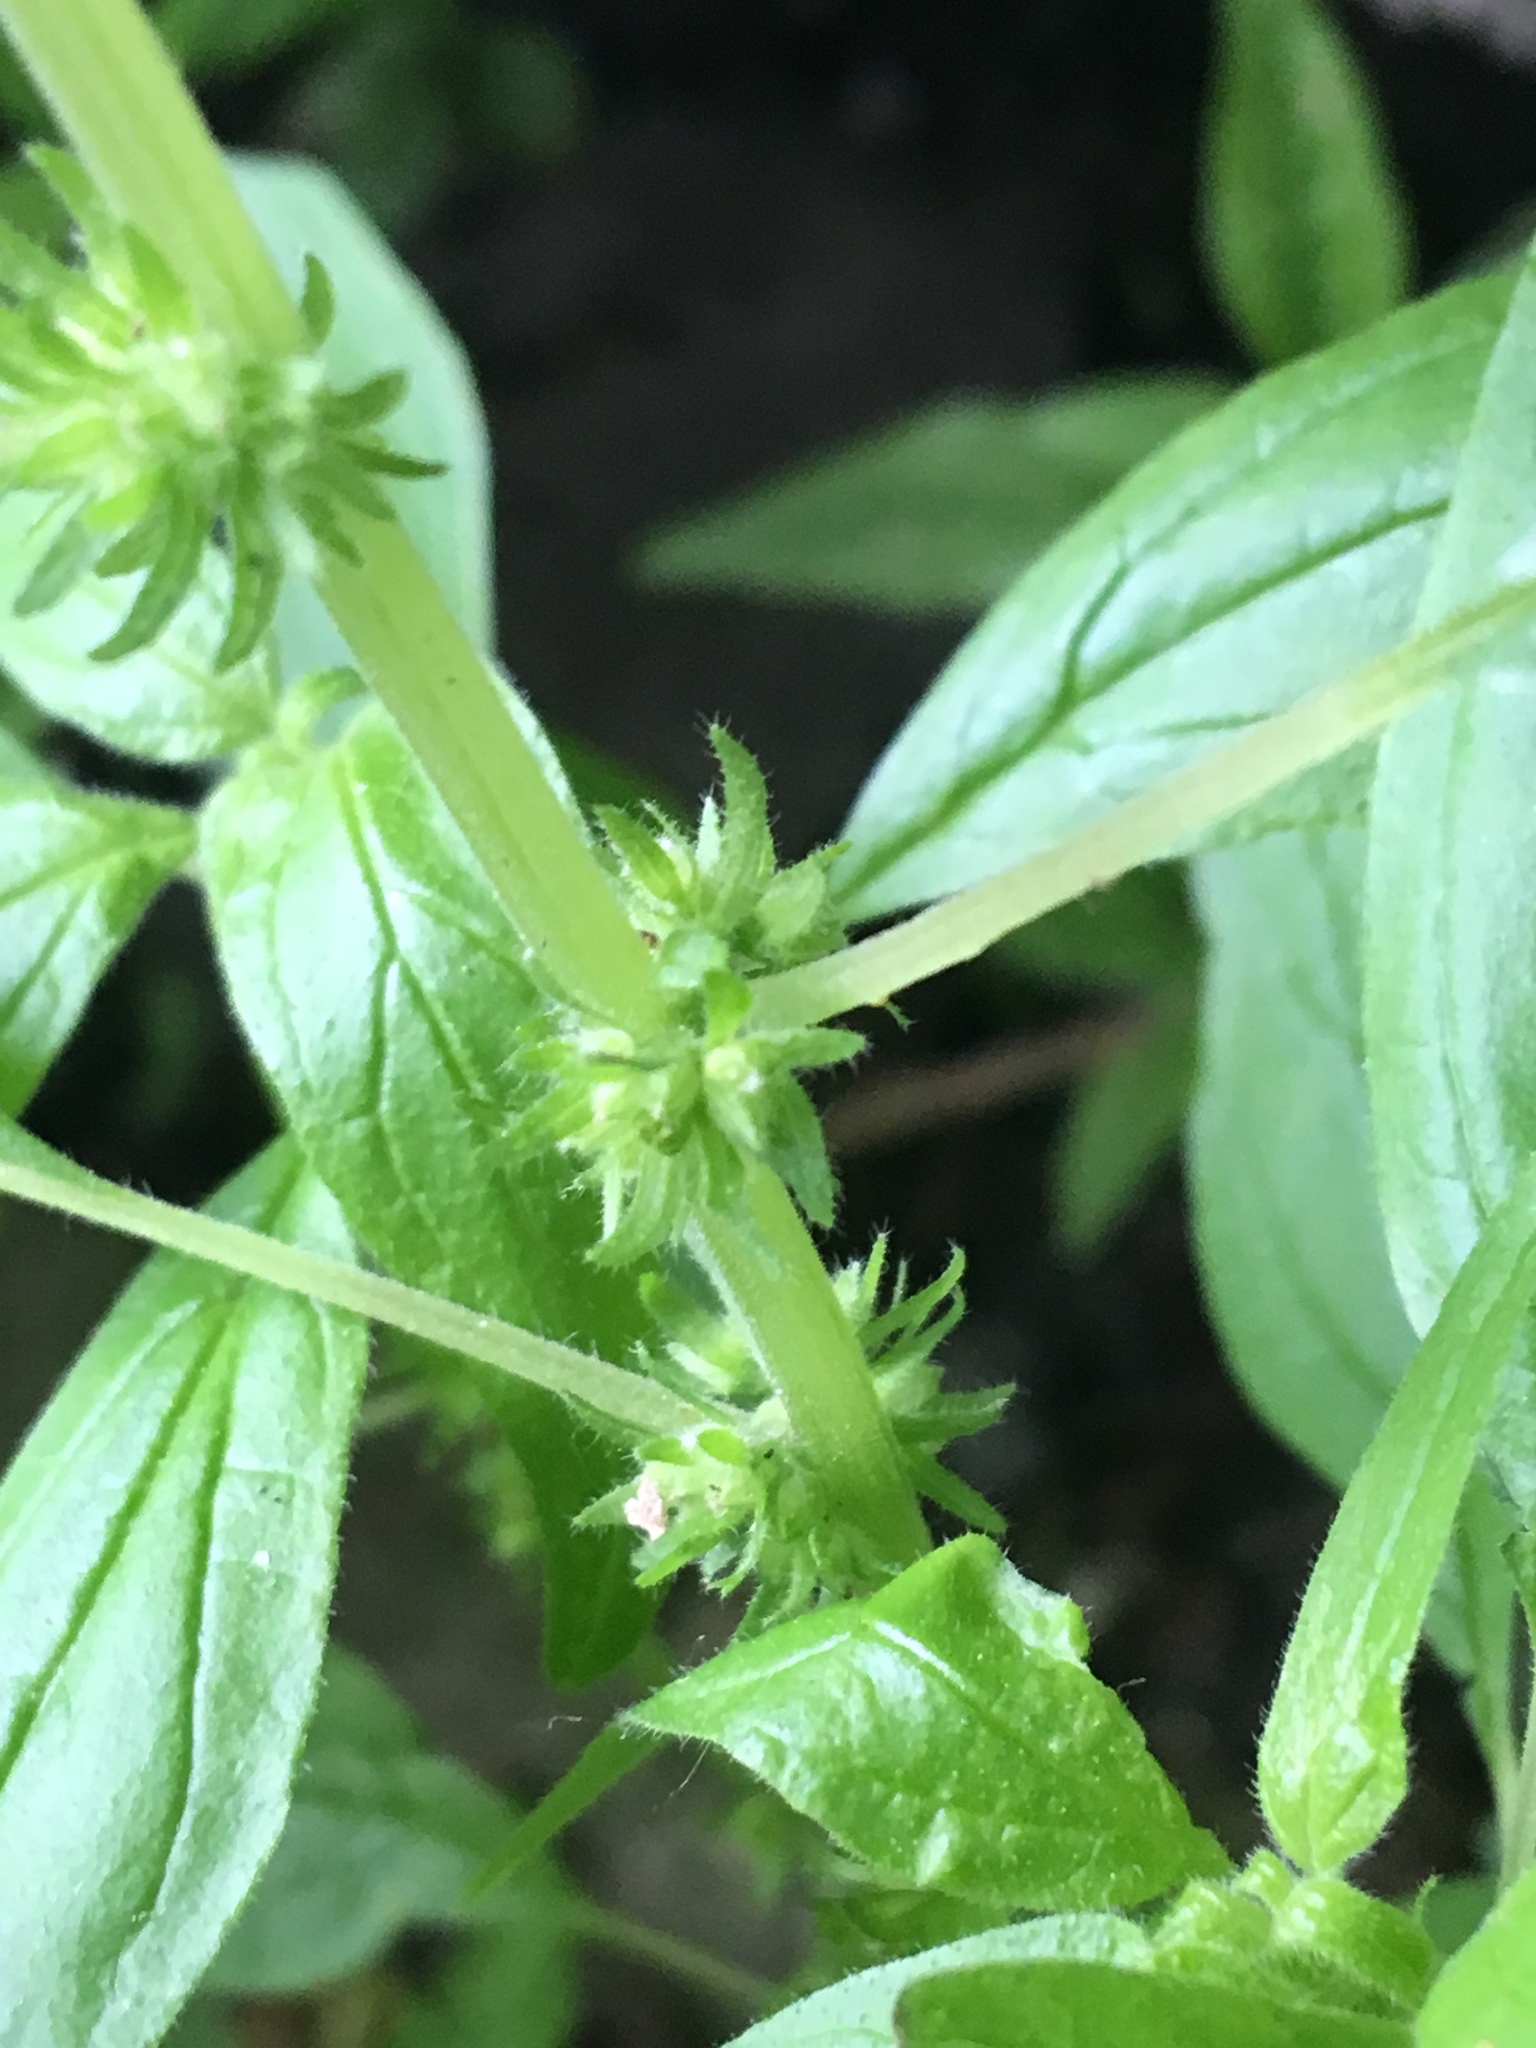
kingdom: Plantae
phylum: Tracheophyta
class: Magnoliopsida
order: Rosales
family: Urticaceae
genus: Parietaria
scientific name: Parietaria pensylvanica
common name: Pennsylvania pellitory
